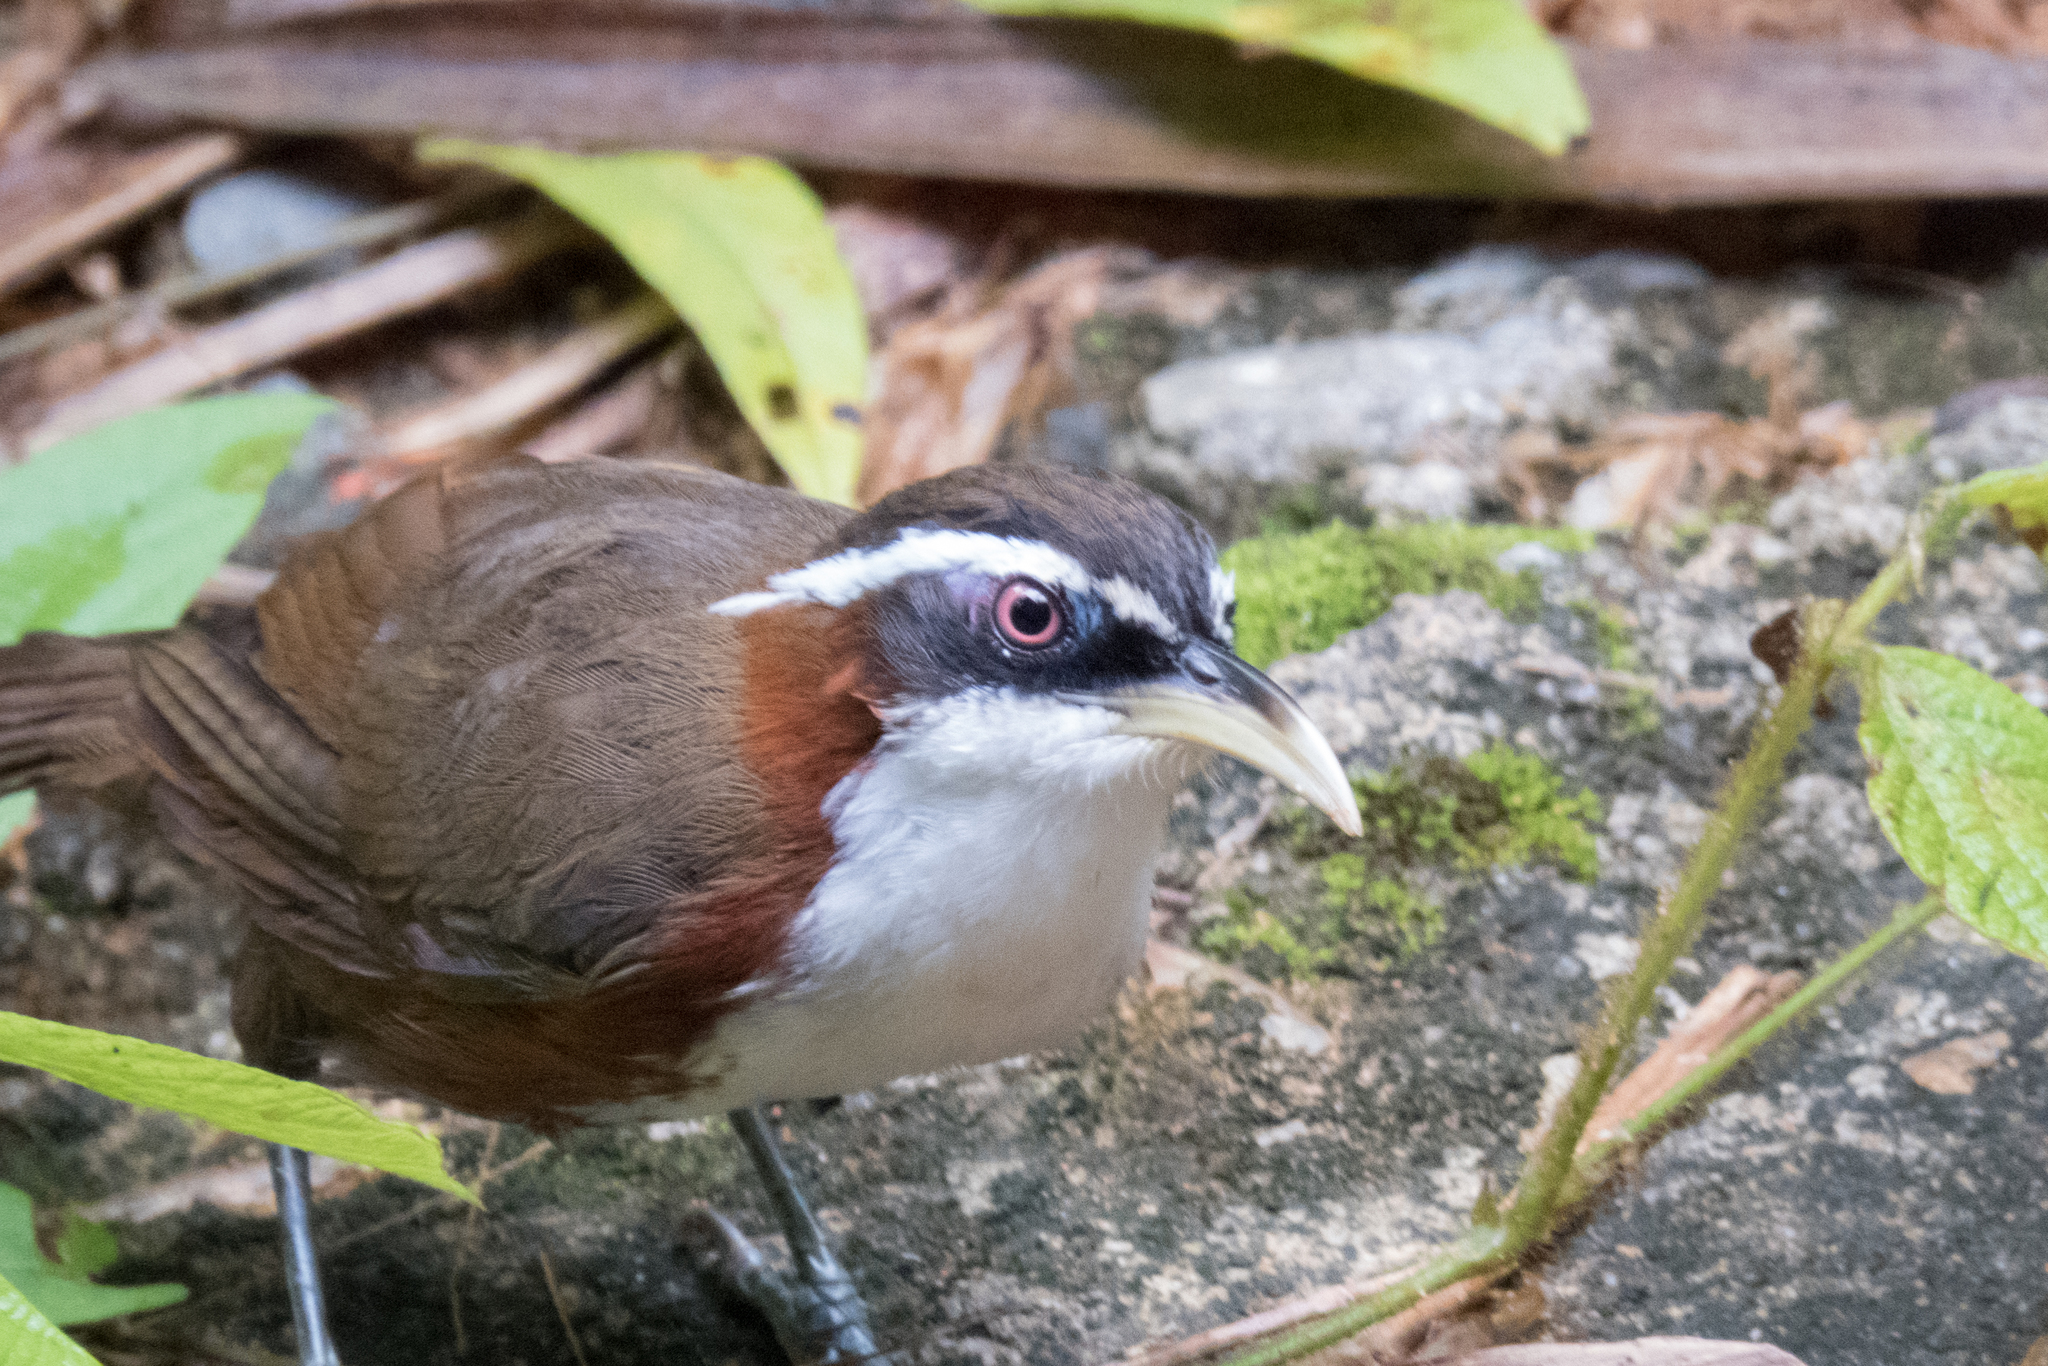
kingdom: Animalia
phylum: Chordata
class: Aves
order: Passeriformes
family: Timaliidae
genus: Pomatorhinus
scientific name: Pomatorhinus schisticeps
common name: White-browed scimitar babbler
